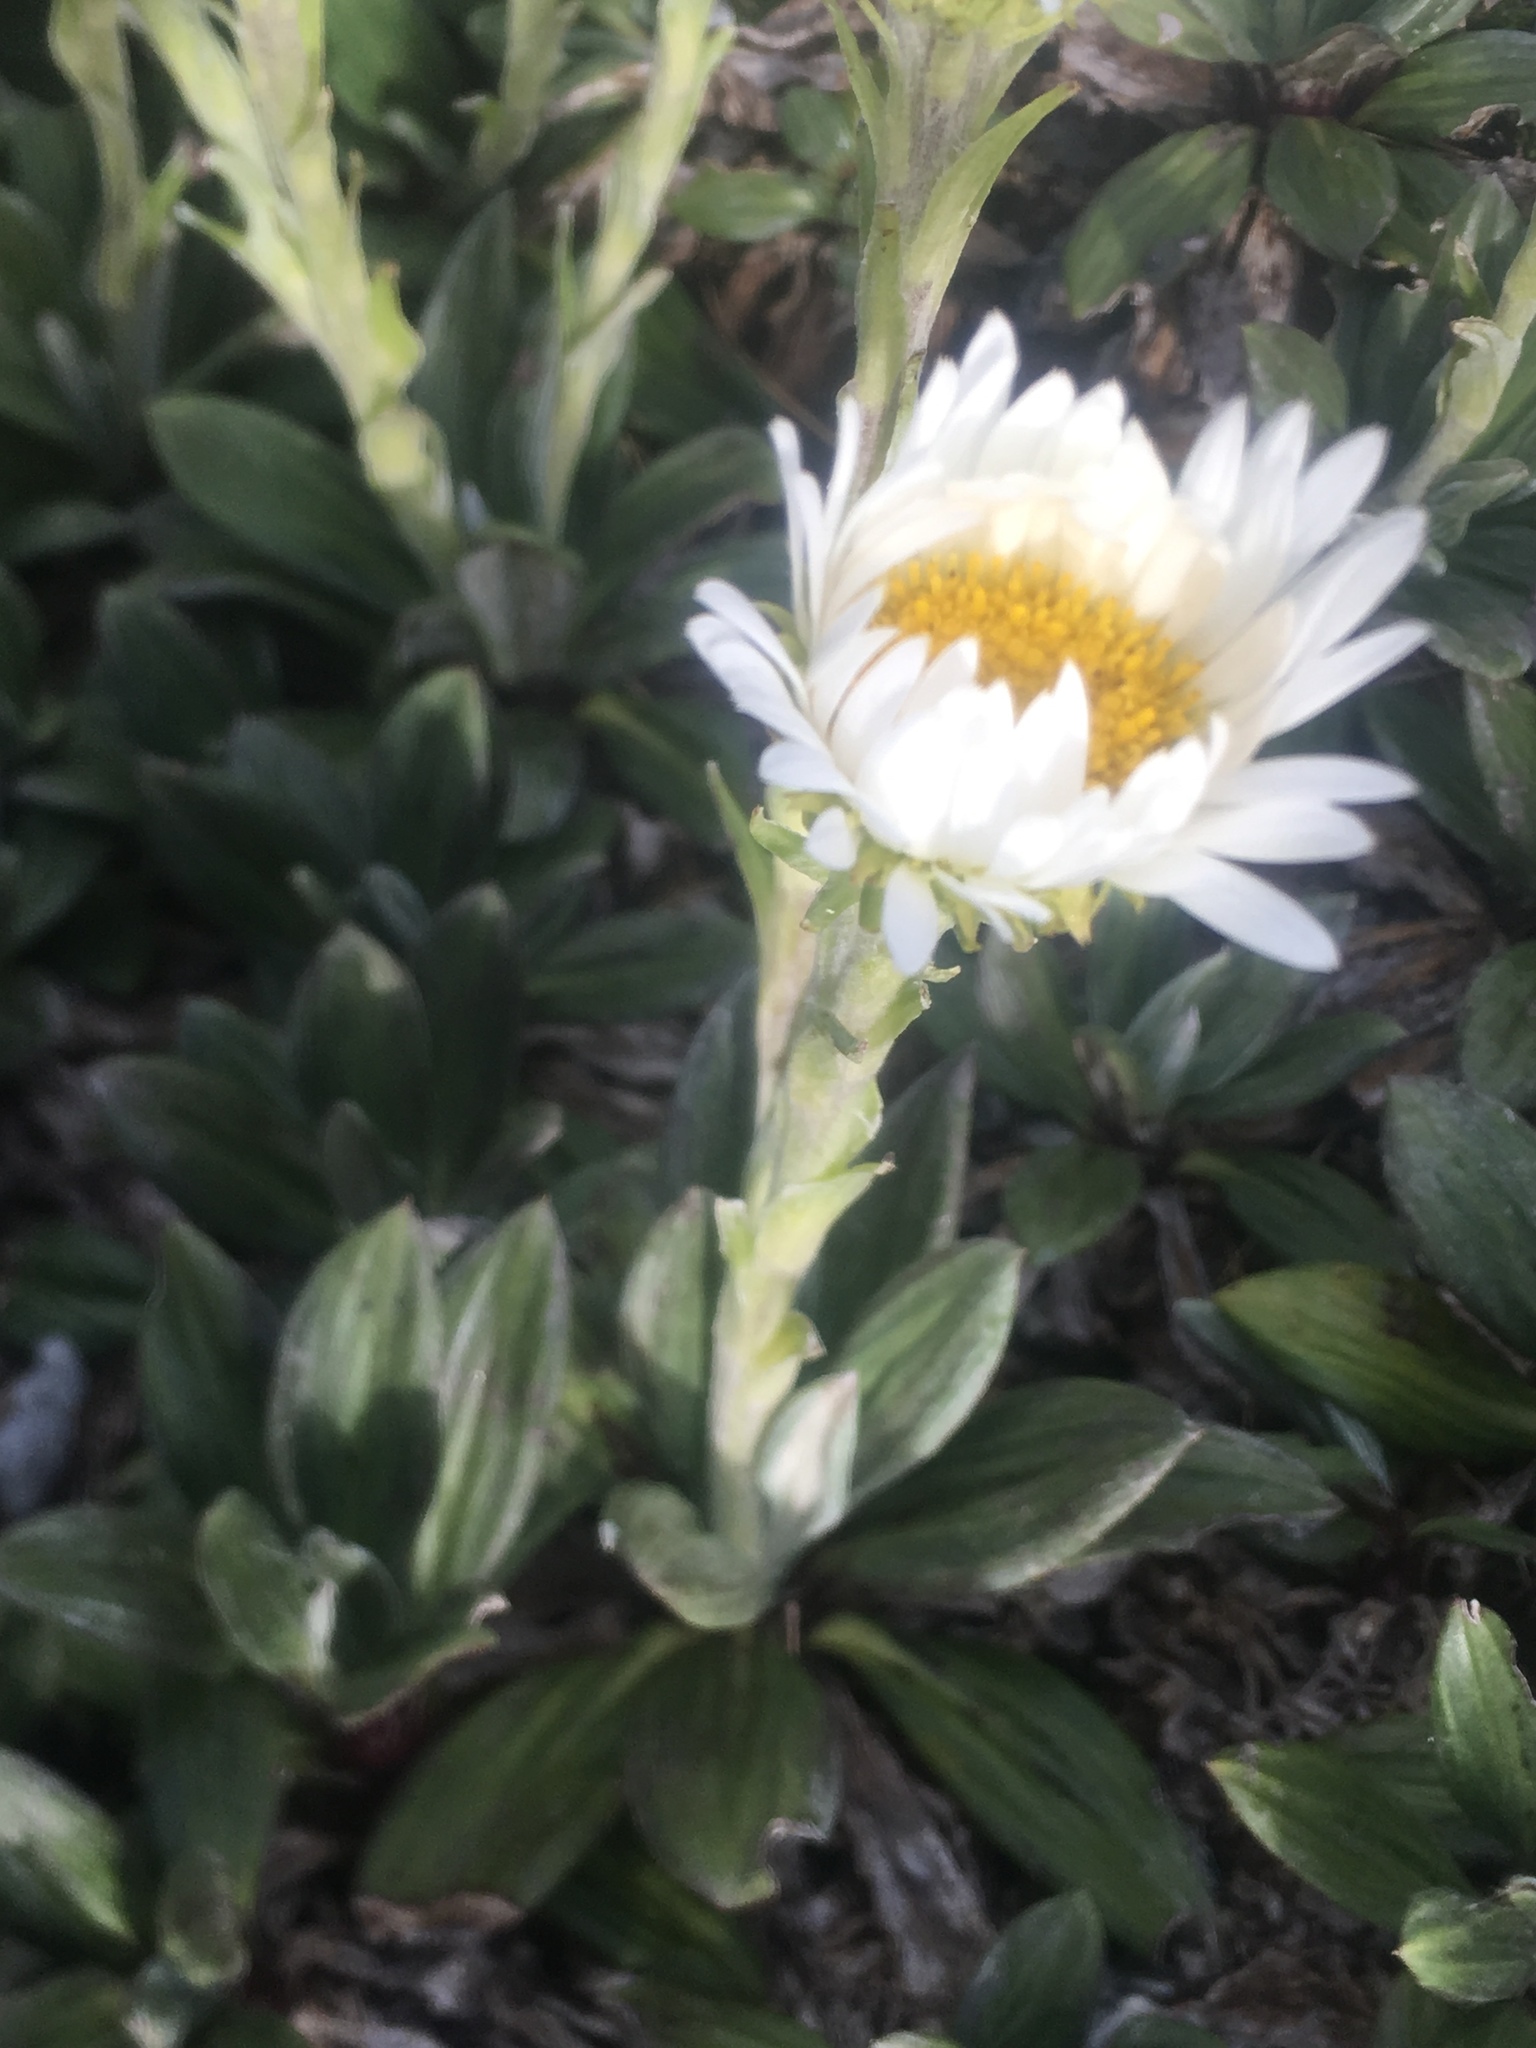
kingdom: Plantae
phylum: Tracheophyta
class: Magnoliopsida
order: Asterales
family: Asteraceae
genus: Celmisia
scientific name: Celmisia haastii
